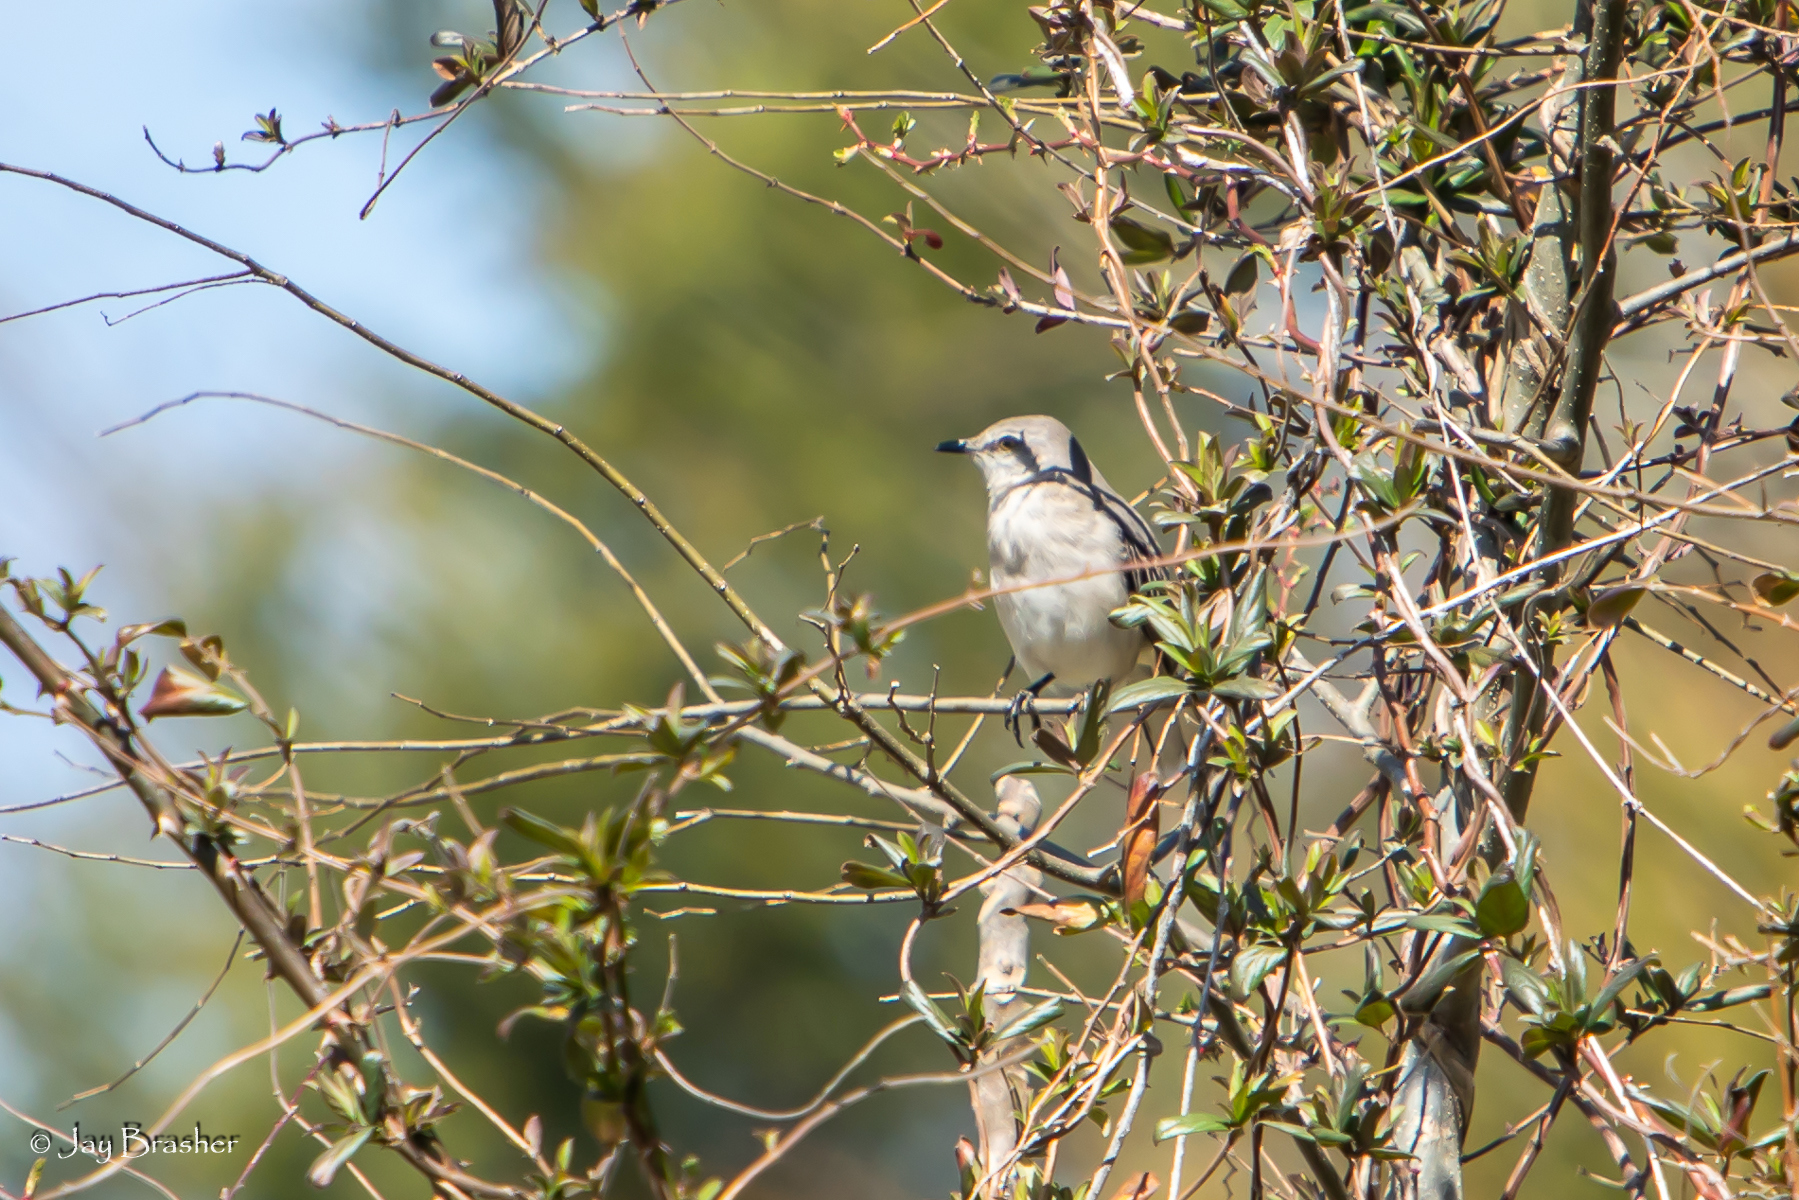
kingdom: Animalia
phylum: Chordata
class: Aves
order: Passeriformes
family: Mimidae
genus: Mimus
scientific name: Mimus polyglottos
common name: Northern mockingbird
